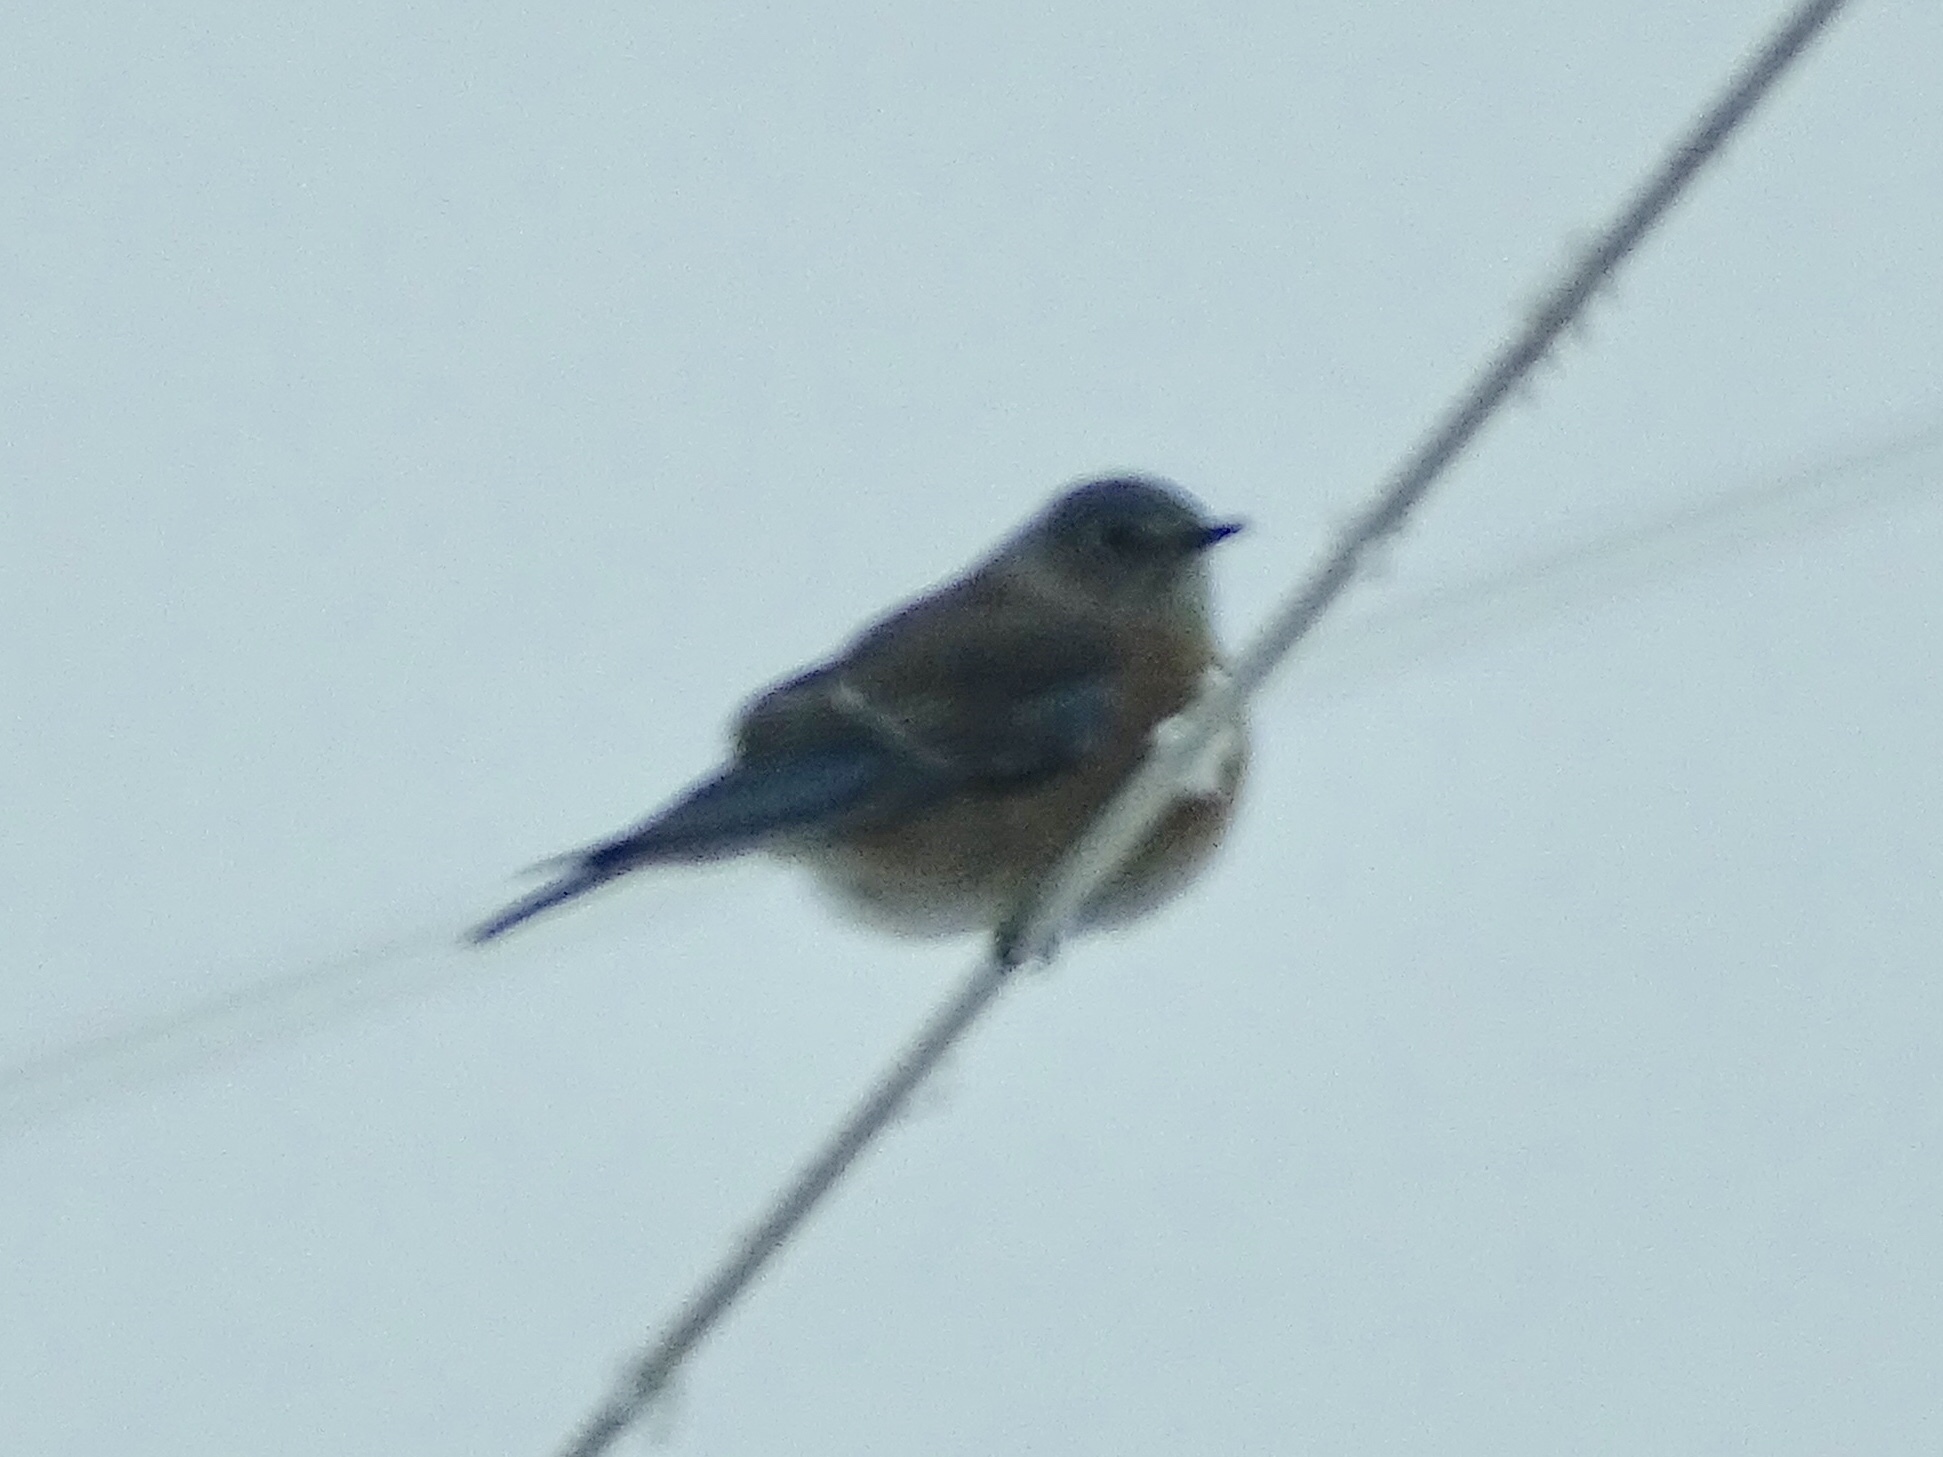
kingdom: Animalia
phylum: Chordata
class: Aves
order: Passeriformes
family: Turdidae
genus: Sialia
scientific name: Sialia mexicana
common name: Western bluebird
